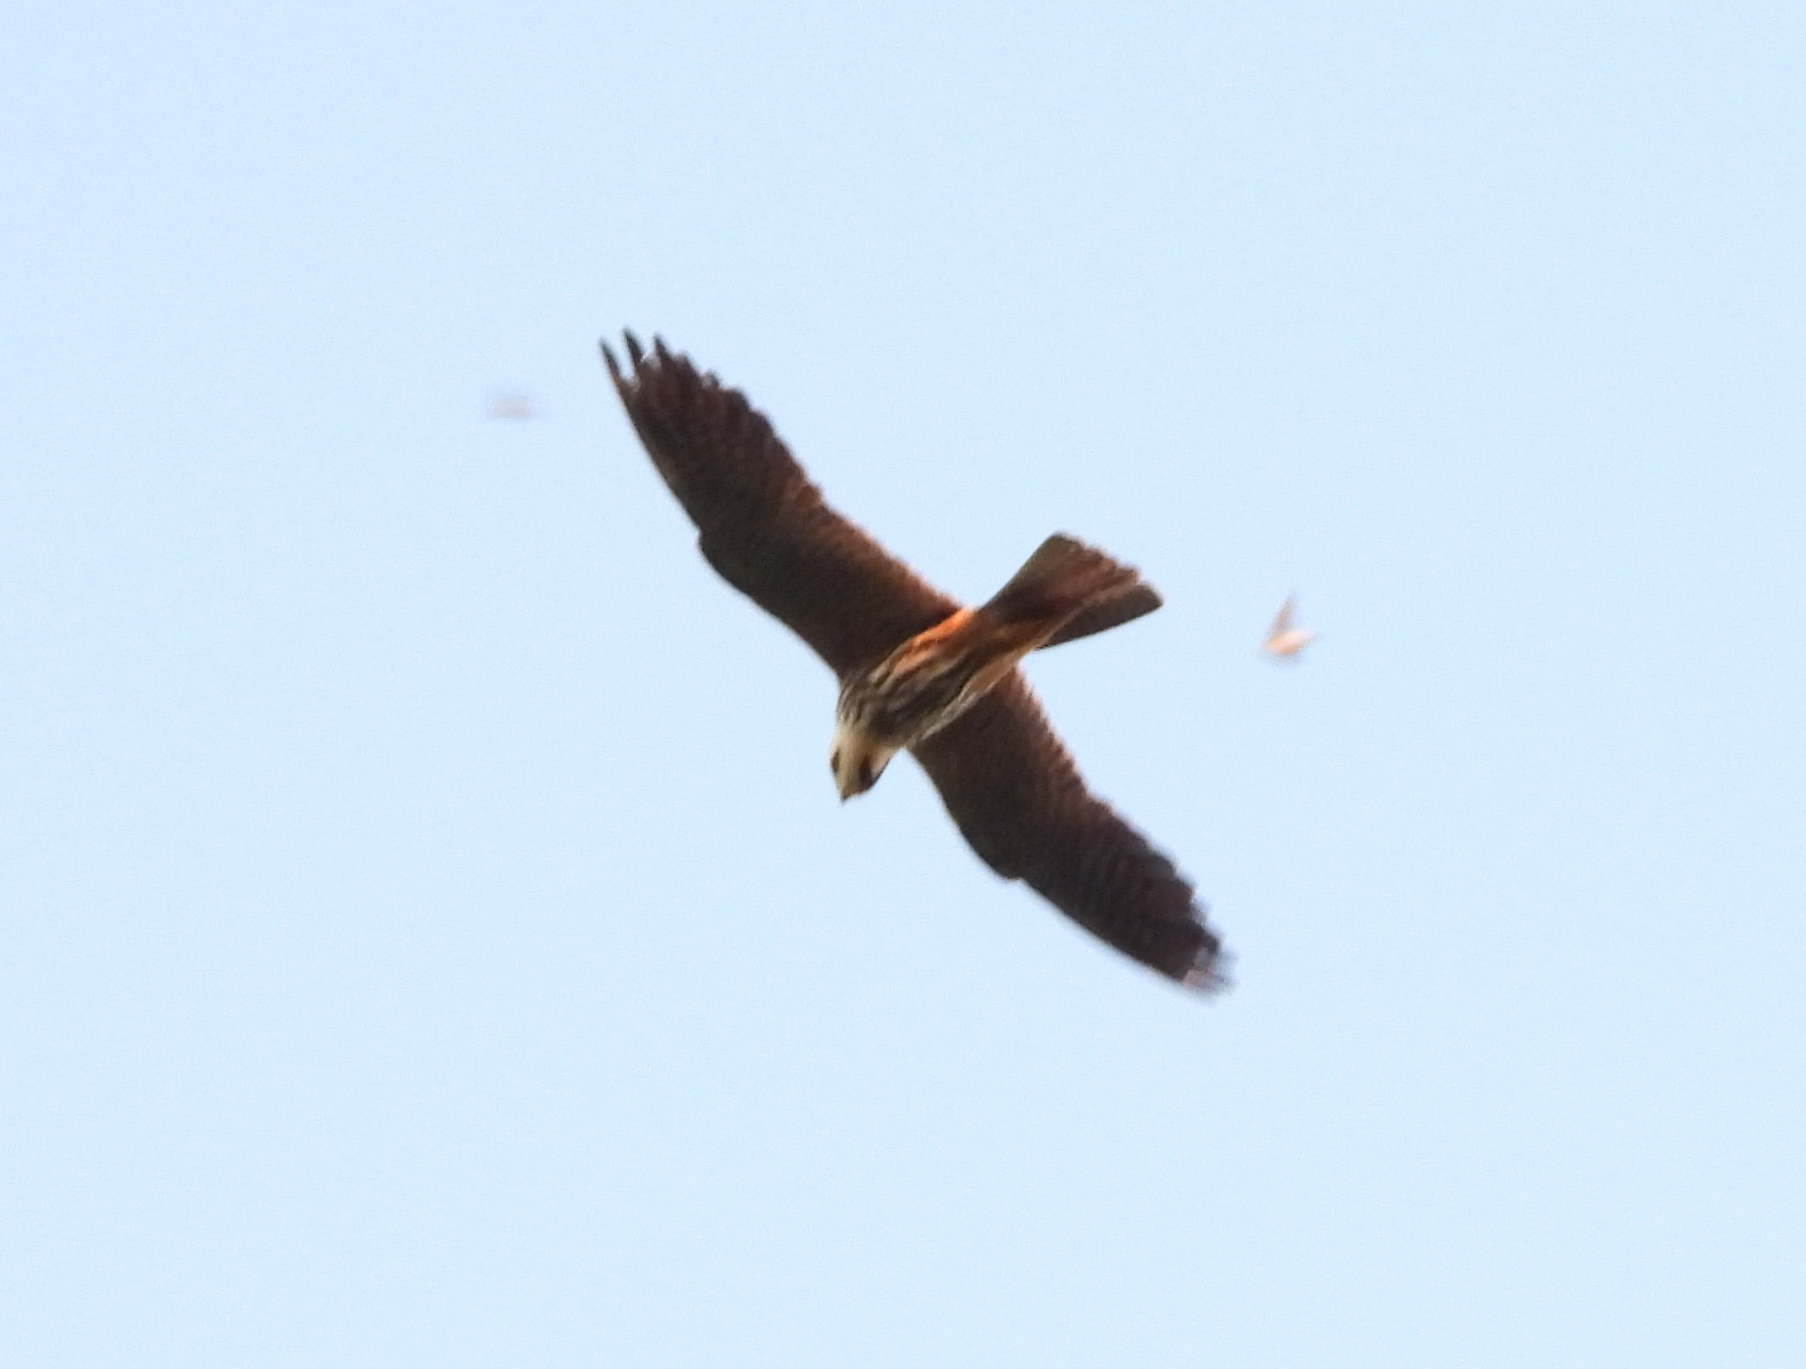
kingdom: Animalia
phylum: Chordata
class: Aves
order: Falconiformes
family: Falconidae
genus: Falco
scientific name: Falco subbuteo
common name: Eurasian hobby
